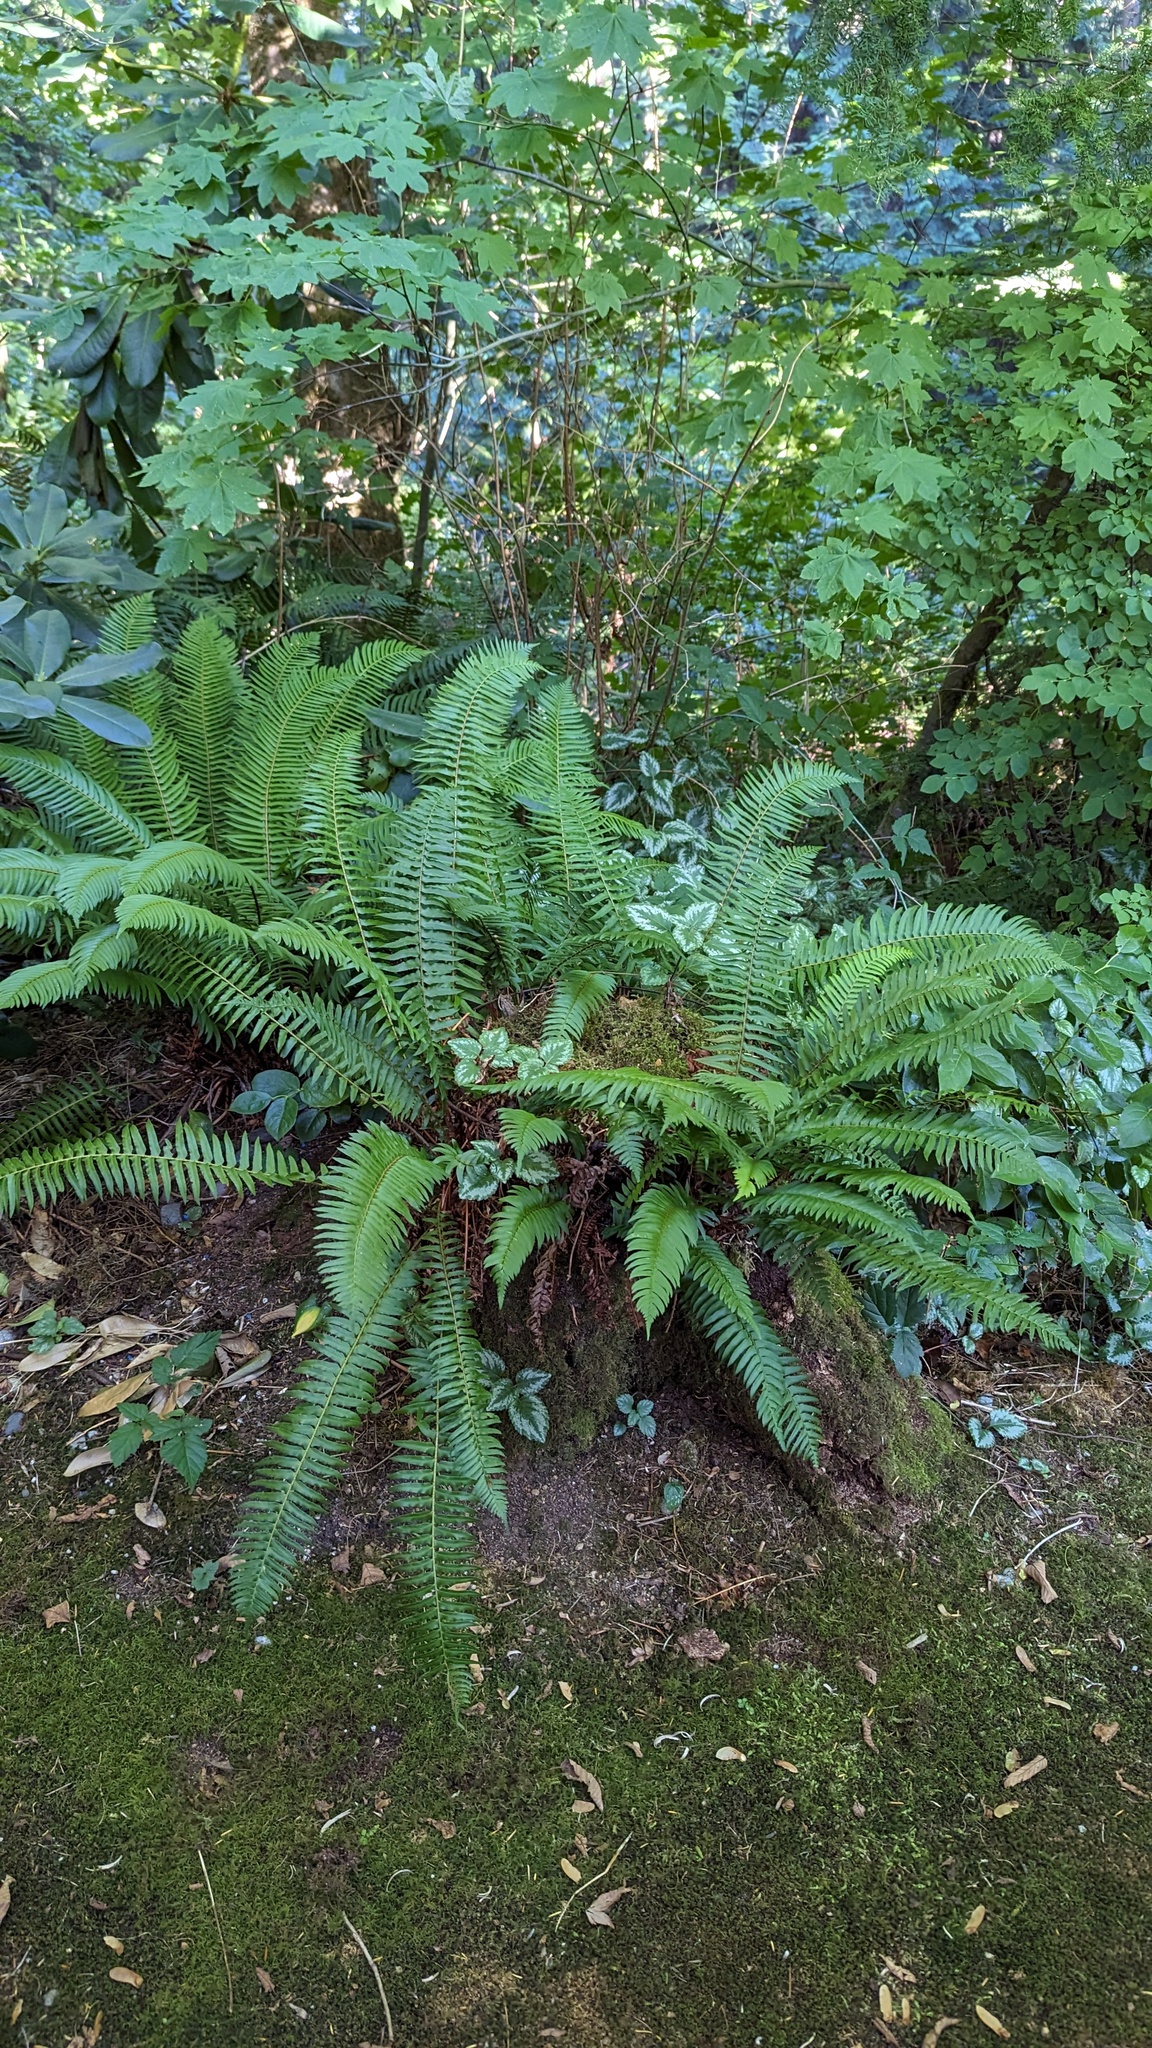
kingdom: Plantae
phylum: Tracheophyta
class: Polypodiopsida
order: Polypodiales
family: Dryopteridaceae
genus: Polystichum
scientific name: Polystichum munitum
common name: Western sword-fern
